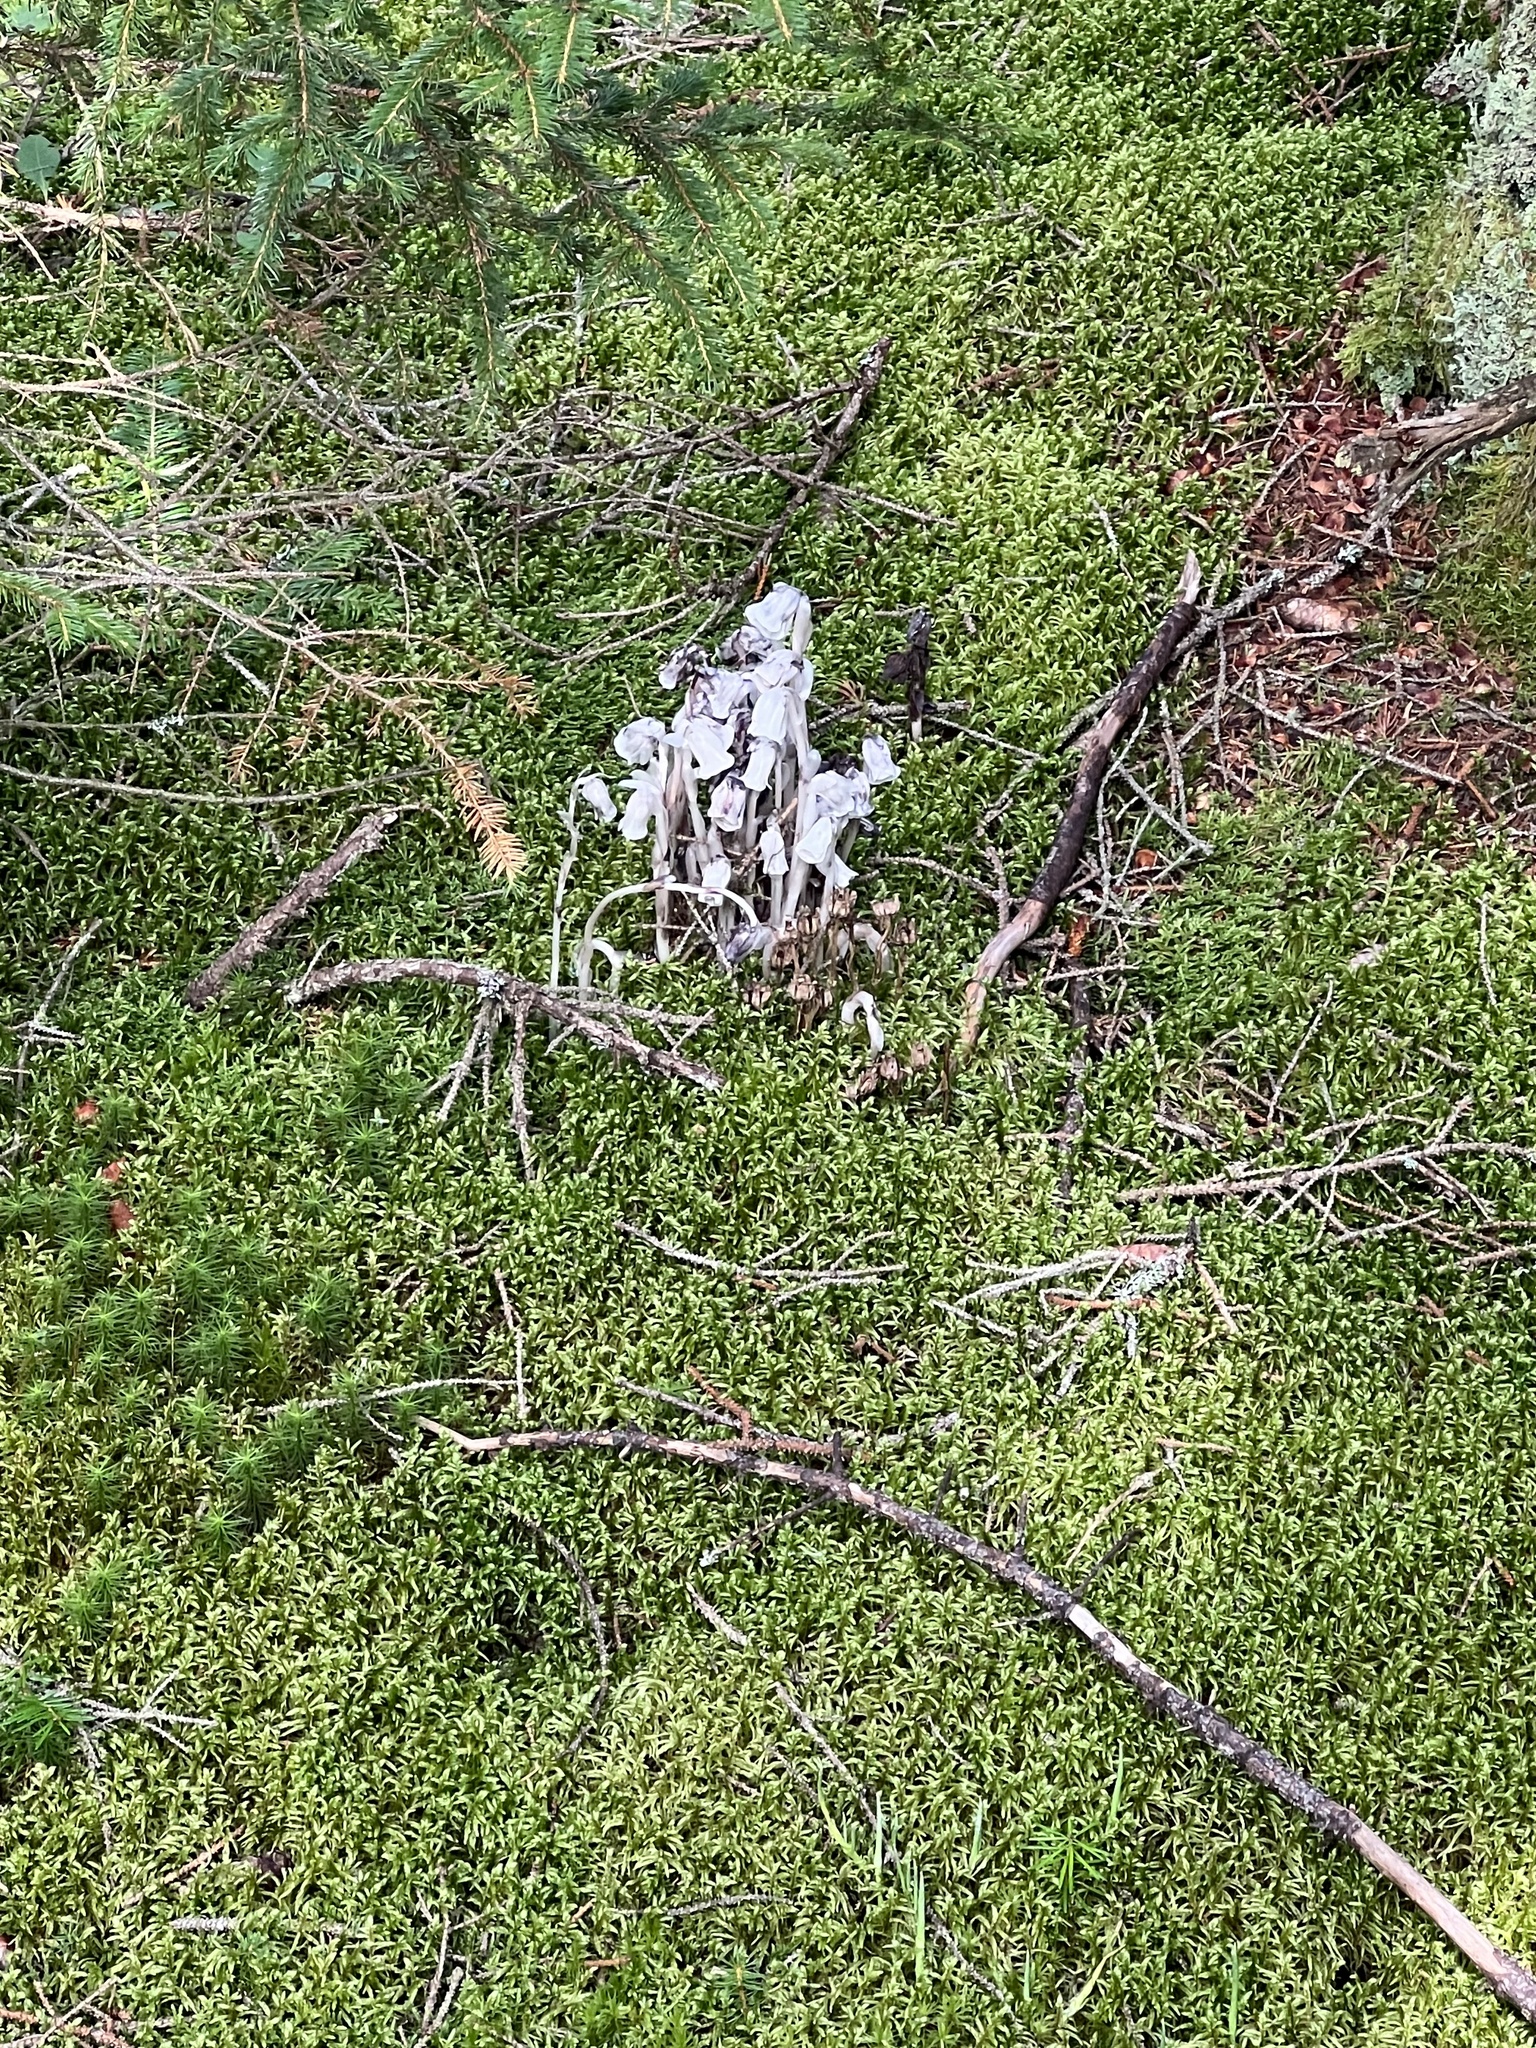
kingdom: Plantae
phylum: Tracheophyta
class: Magnoliopsida
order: Ericales
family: Ericaceae
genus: Monotropa
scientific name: Monotropa uniflora
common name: Convulsion root
